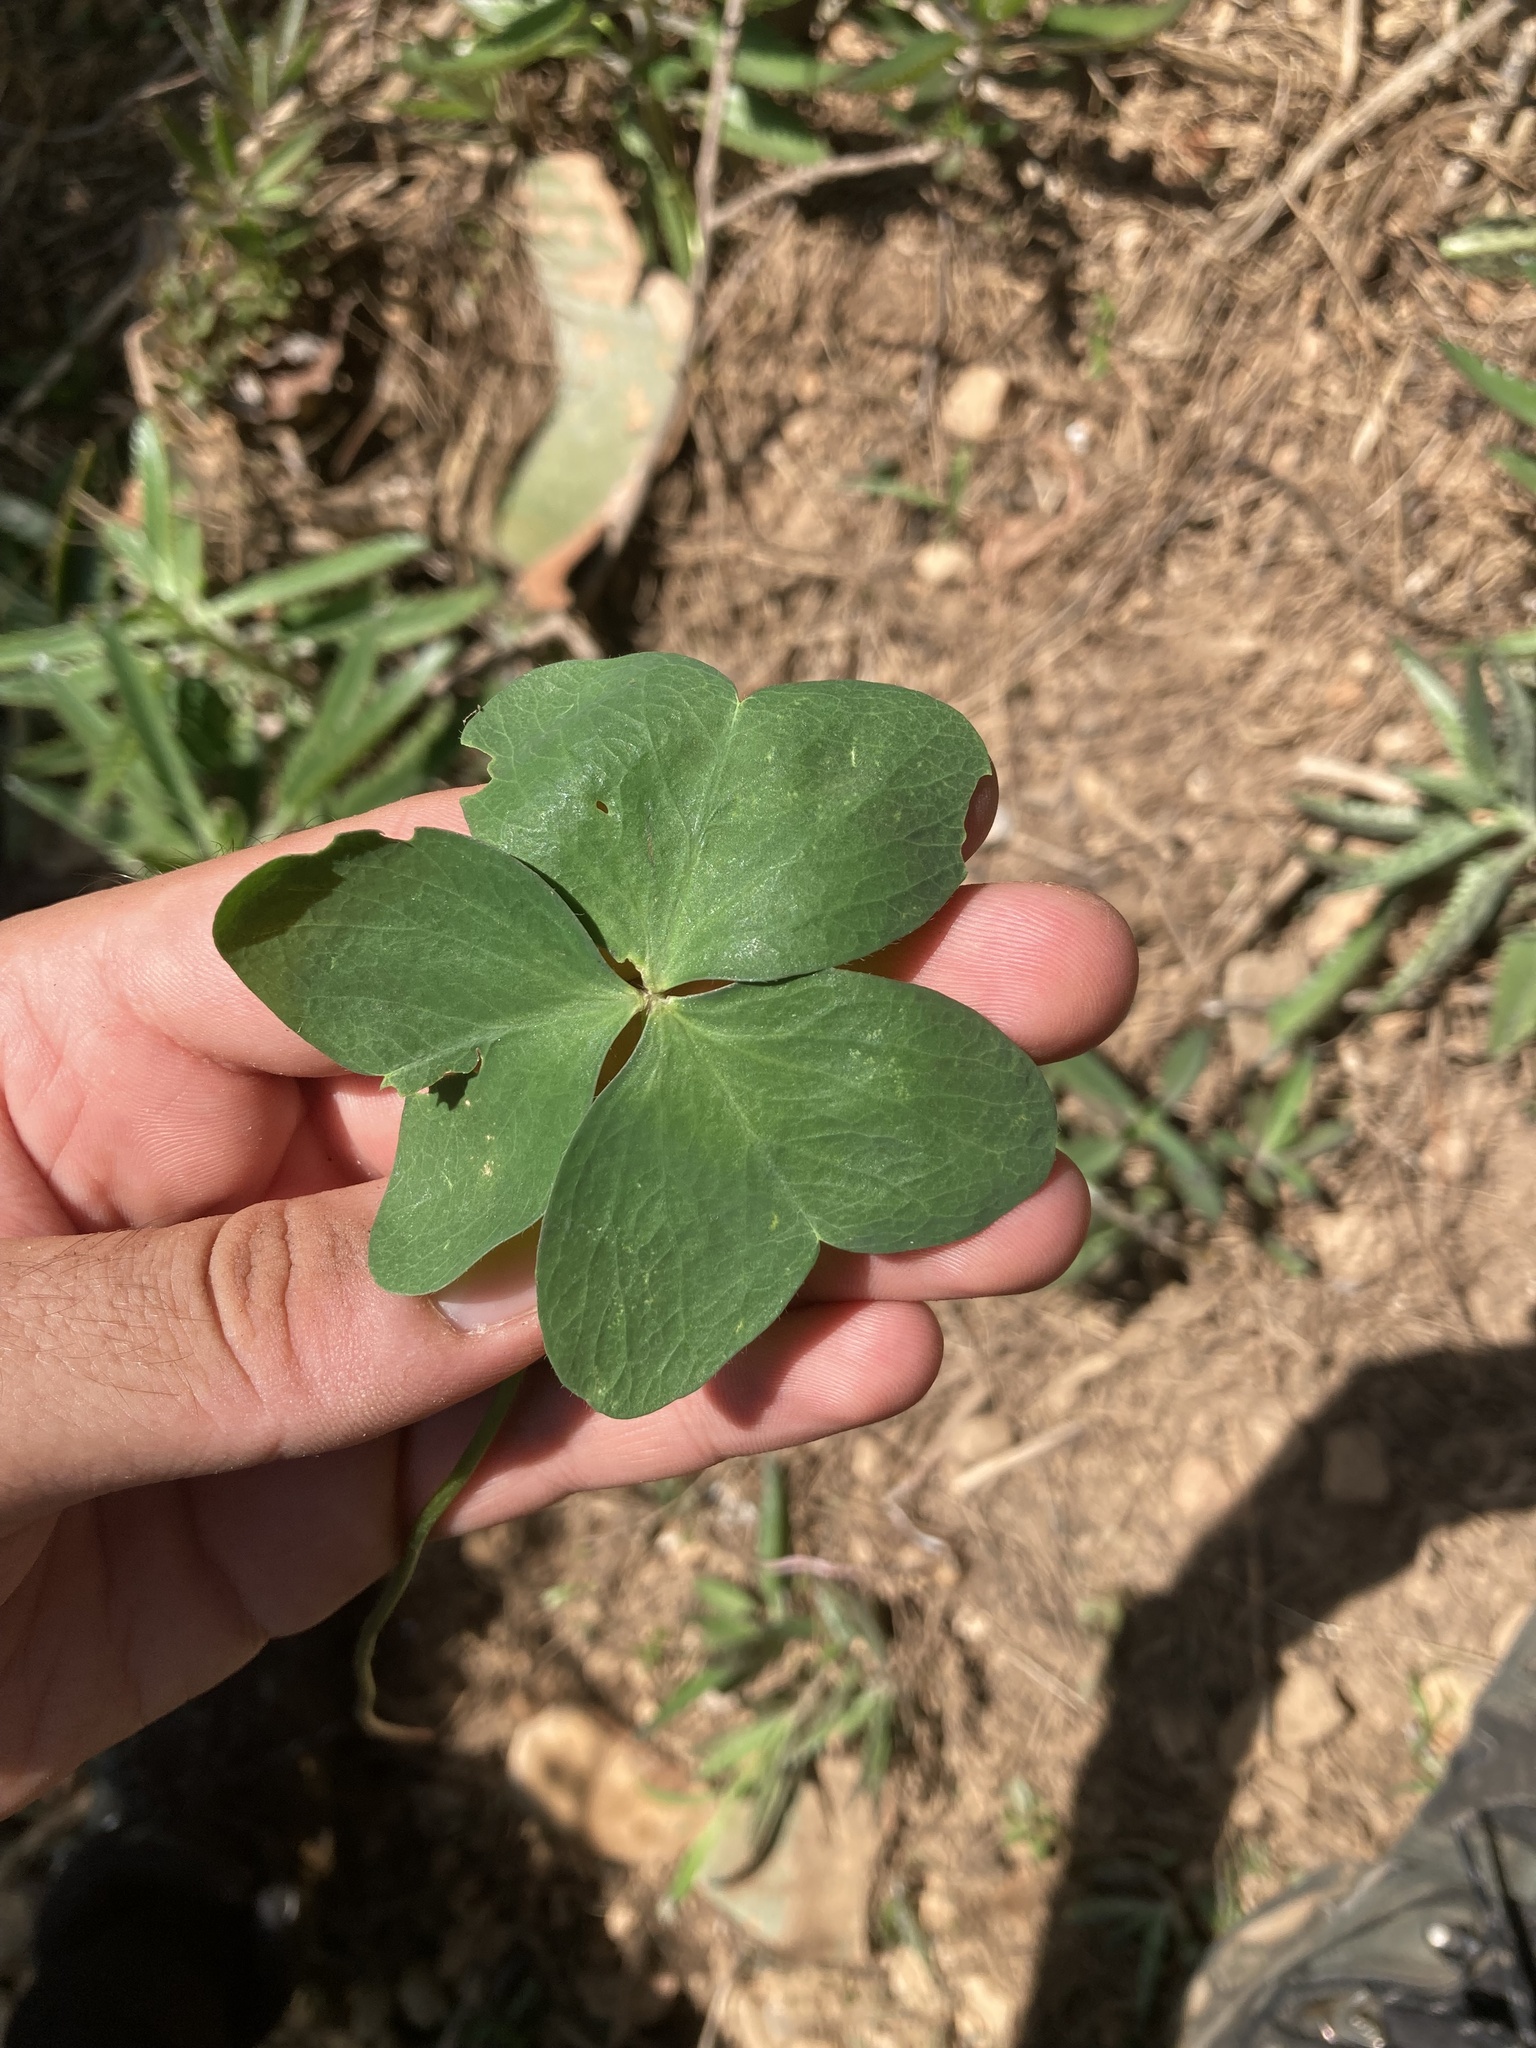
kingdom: Plantae
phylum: Tracheophyta
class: Magnoliopsida
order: Oxalidales
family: Oxalidaceae
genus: Oxalis
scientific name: Oxalis debilis
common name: Large-flowered pink-sorrel
